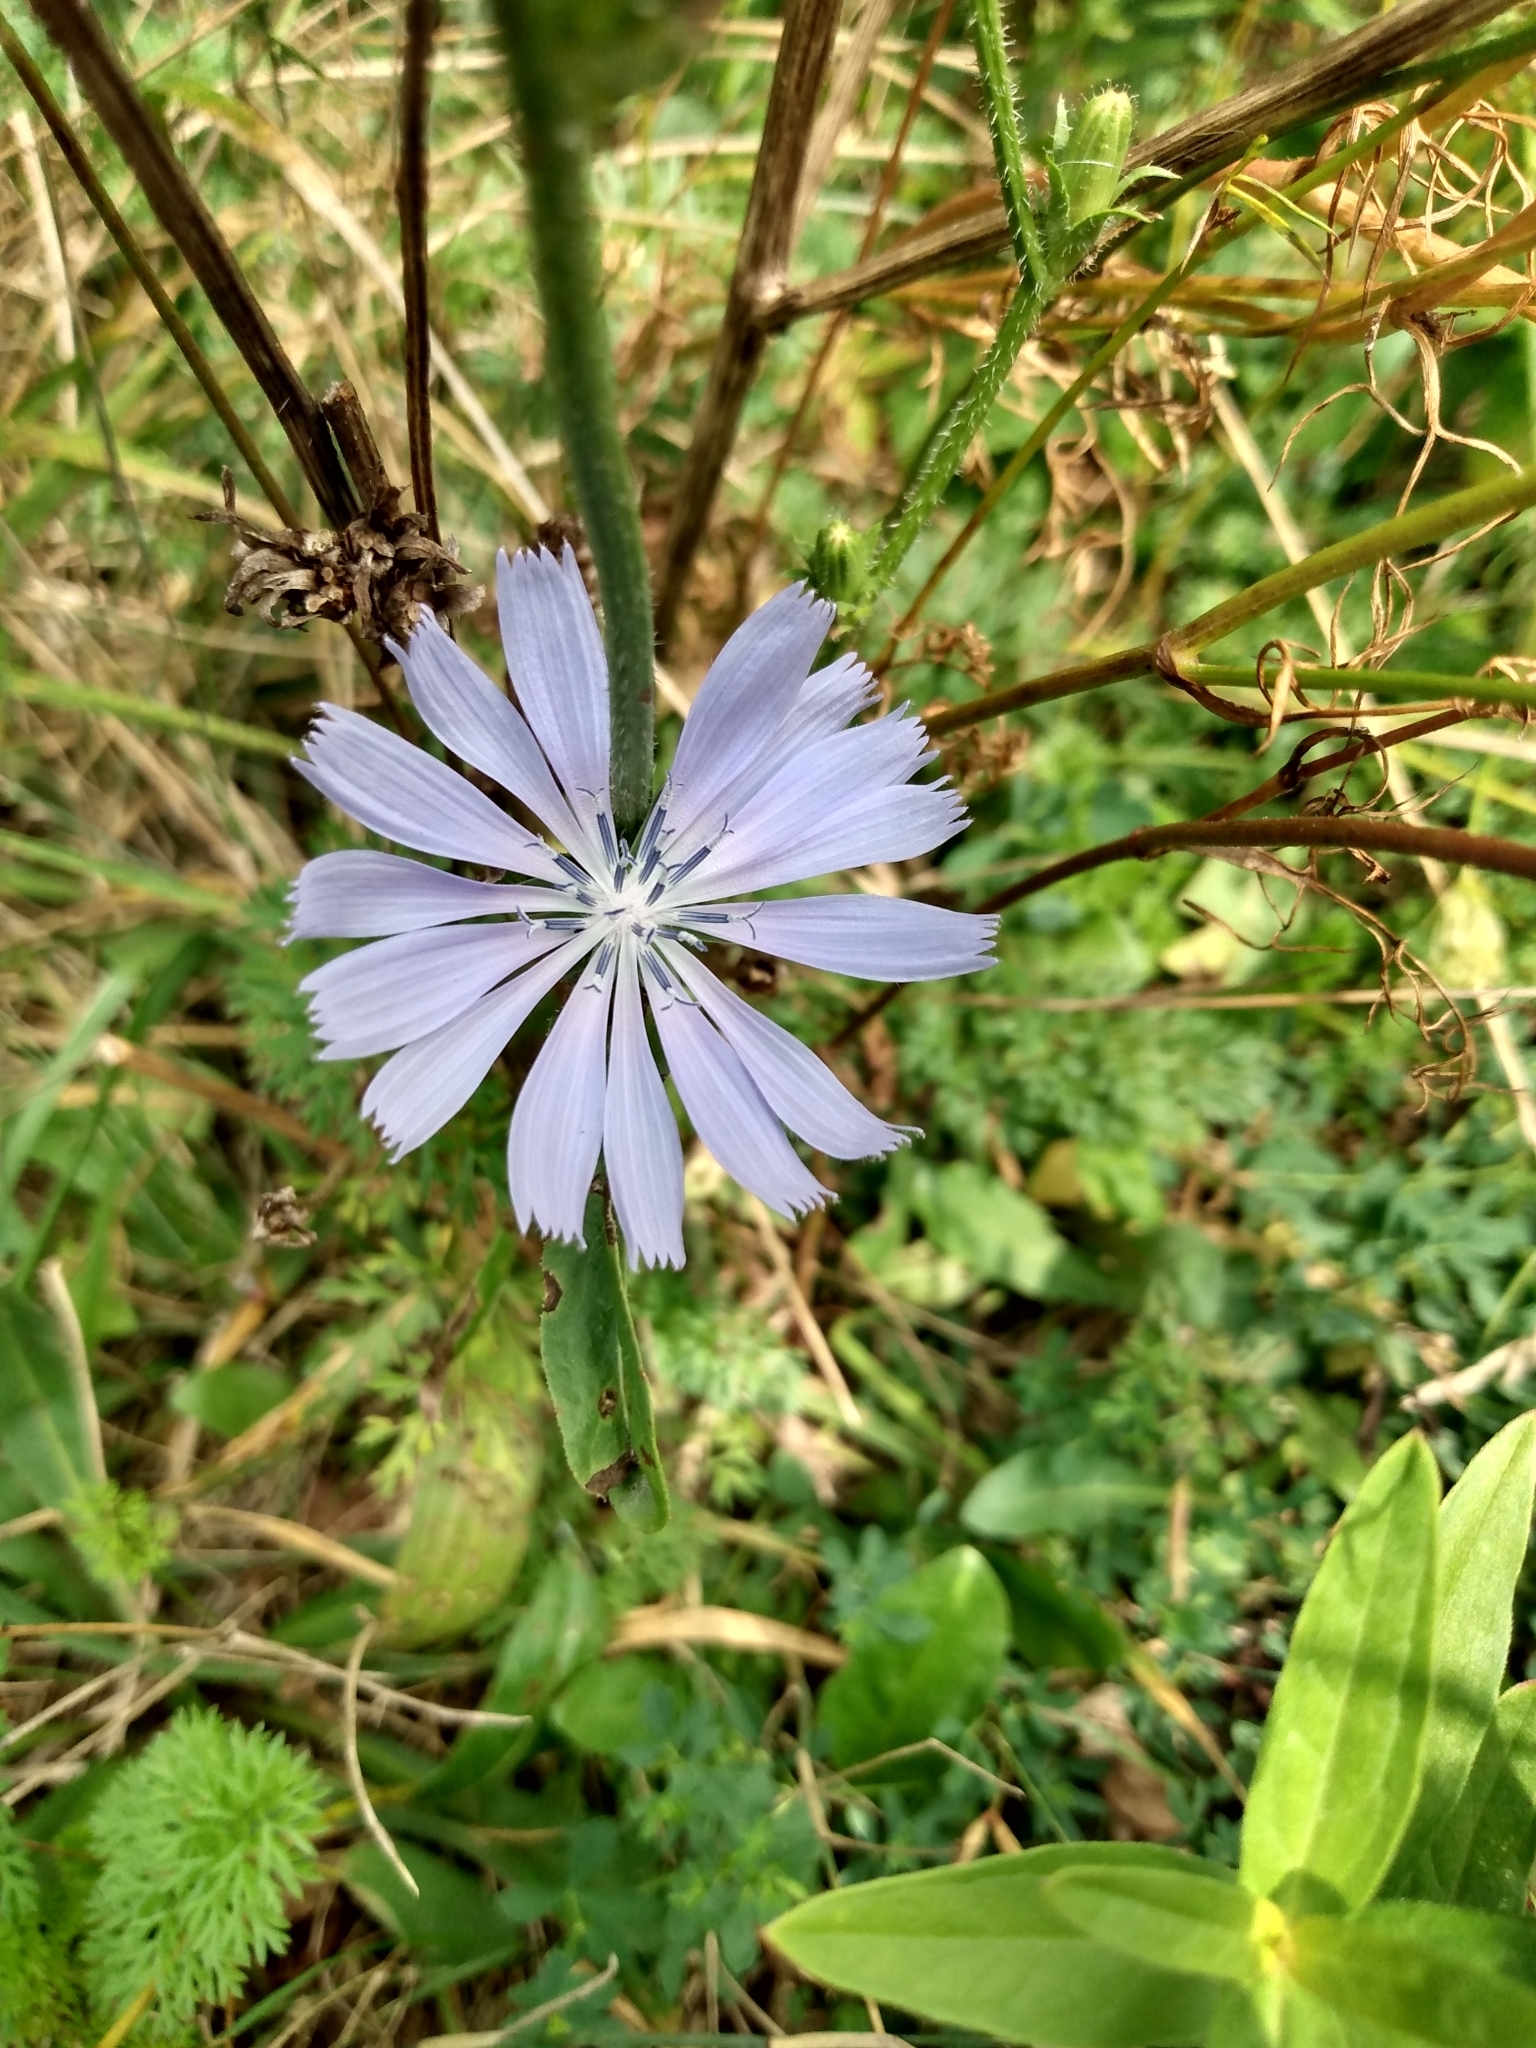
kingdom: Plantae
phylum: Tracheophyta
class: Magnoliopsida
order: Asterales
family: Asteraceae
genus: Cichorium
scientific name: Cichorium intybus
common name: Chicory
